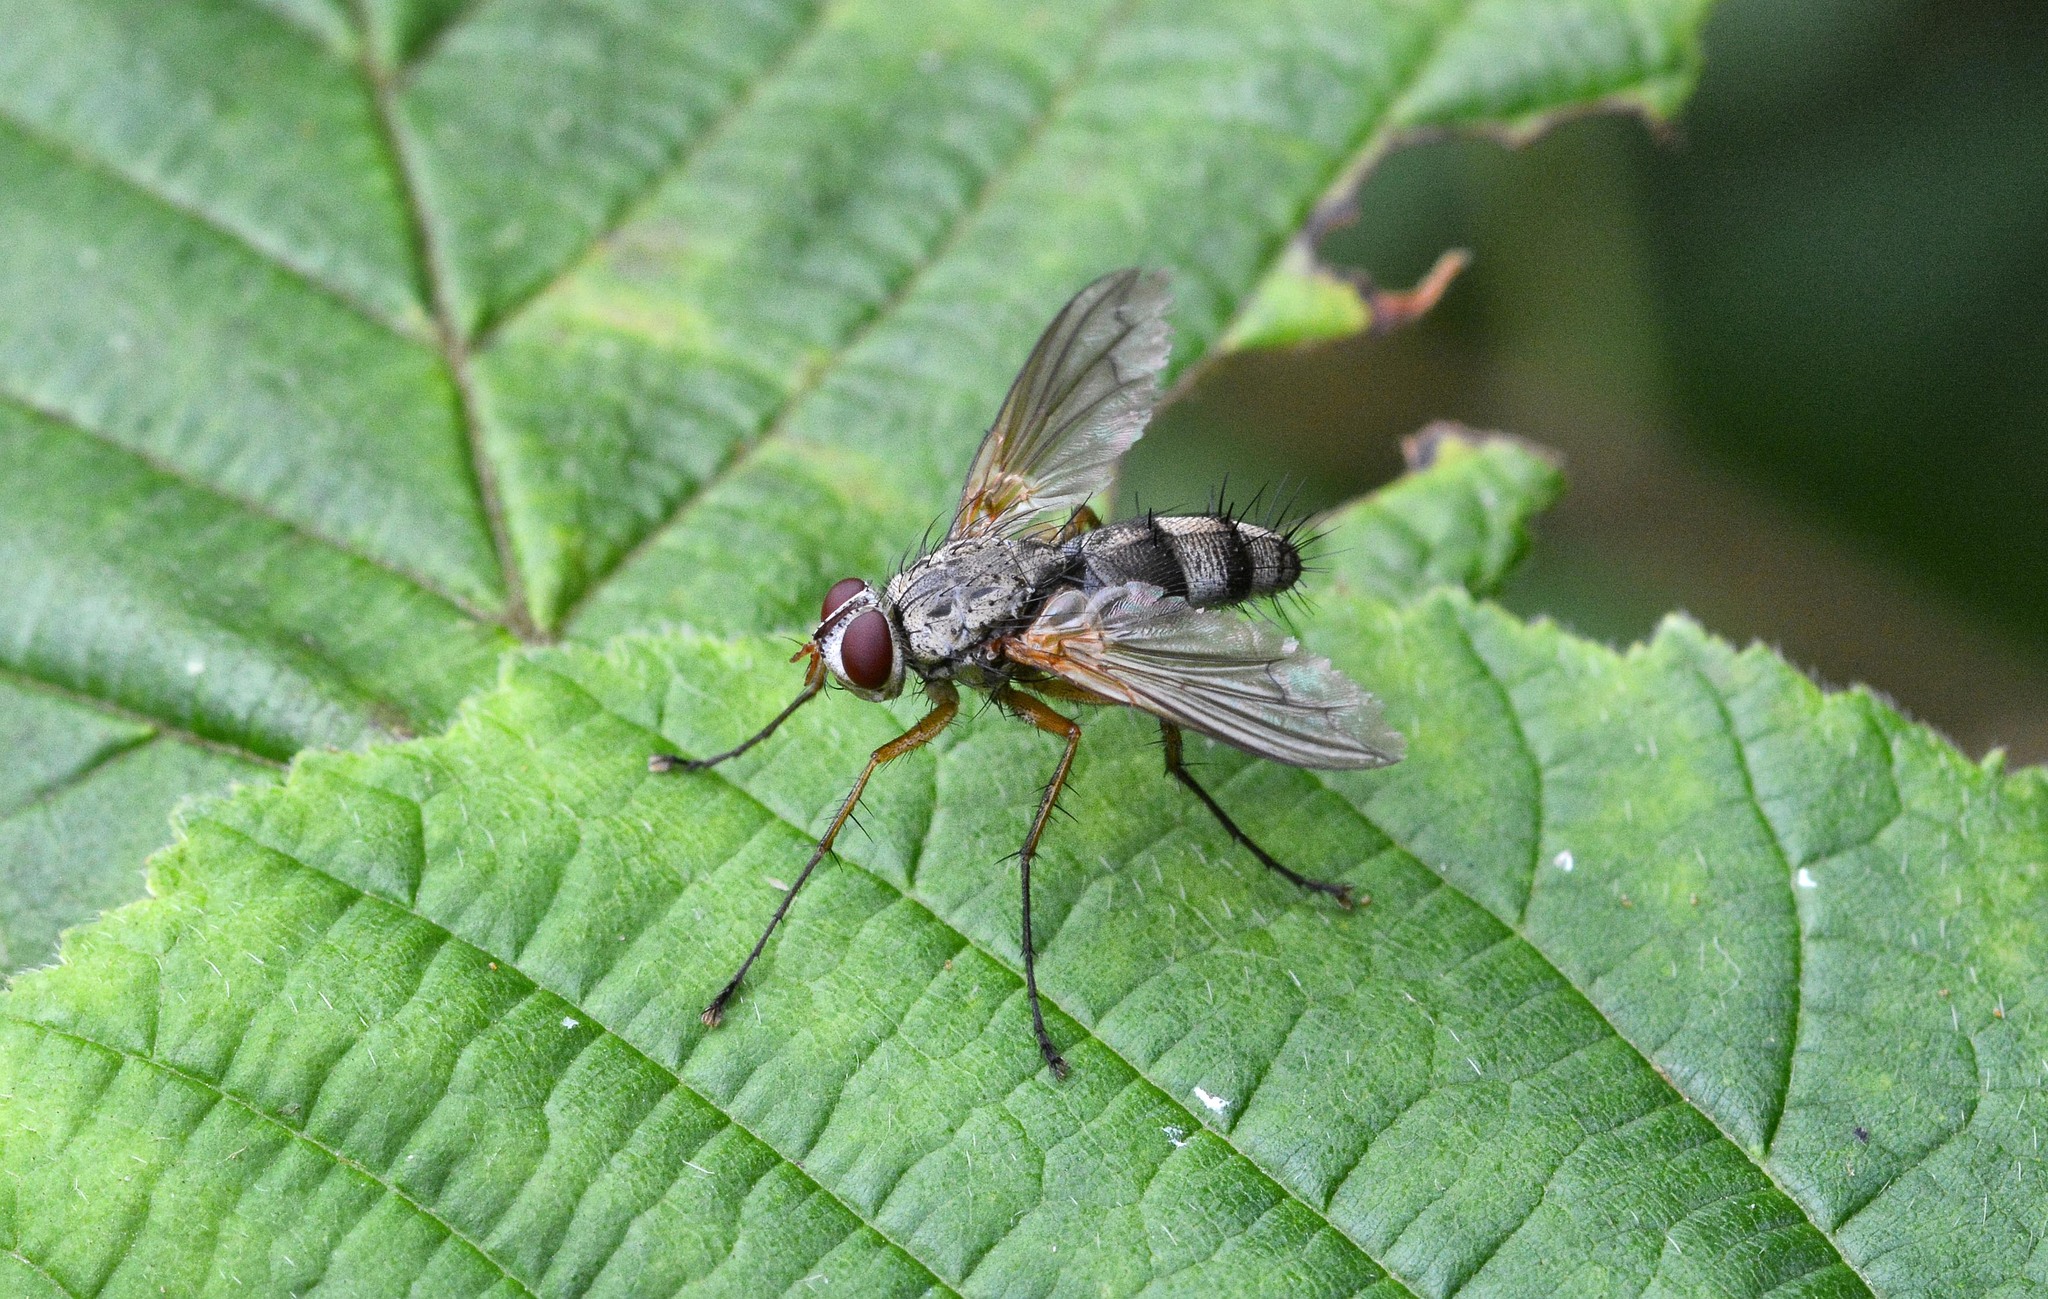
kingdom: Animalia
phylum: Arthropoda
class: Insecta
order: Diptera
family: Tachinidae
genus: Dexiosoma
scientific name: Dexiosoma caninum
